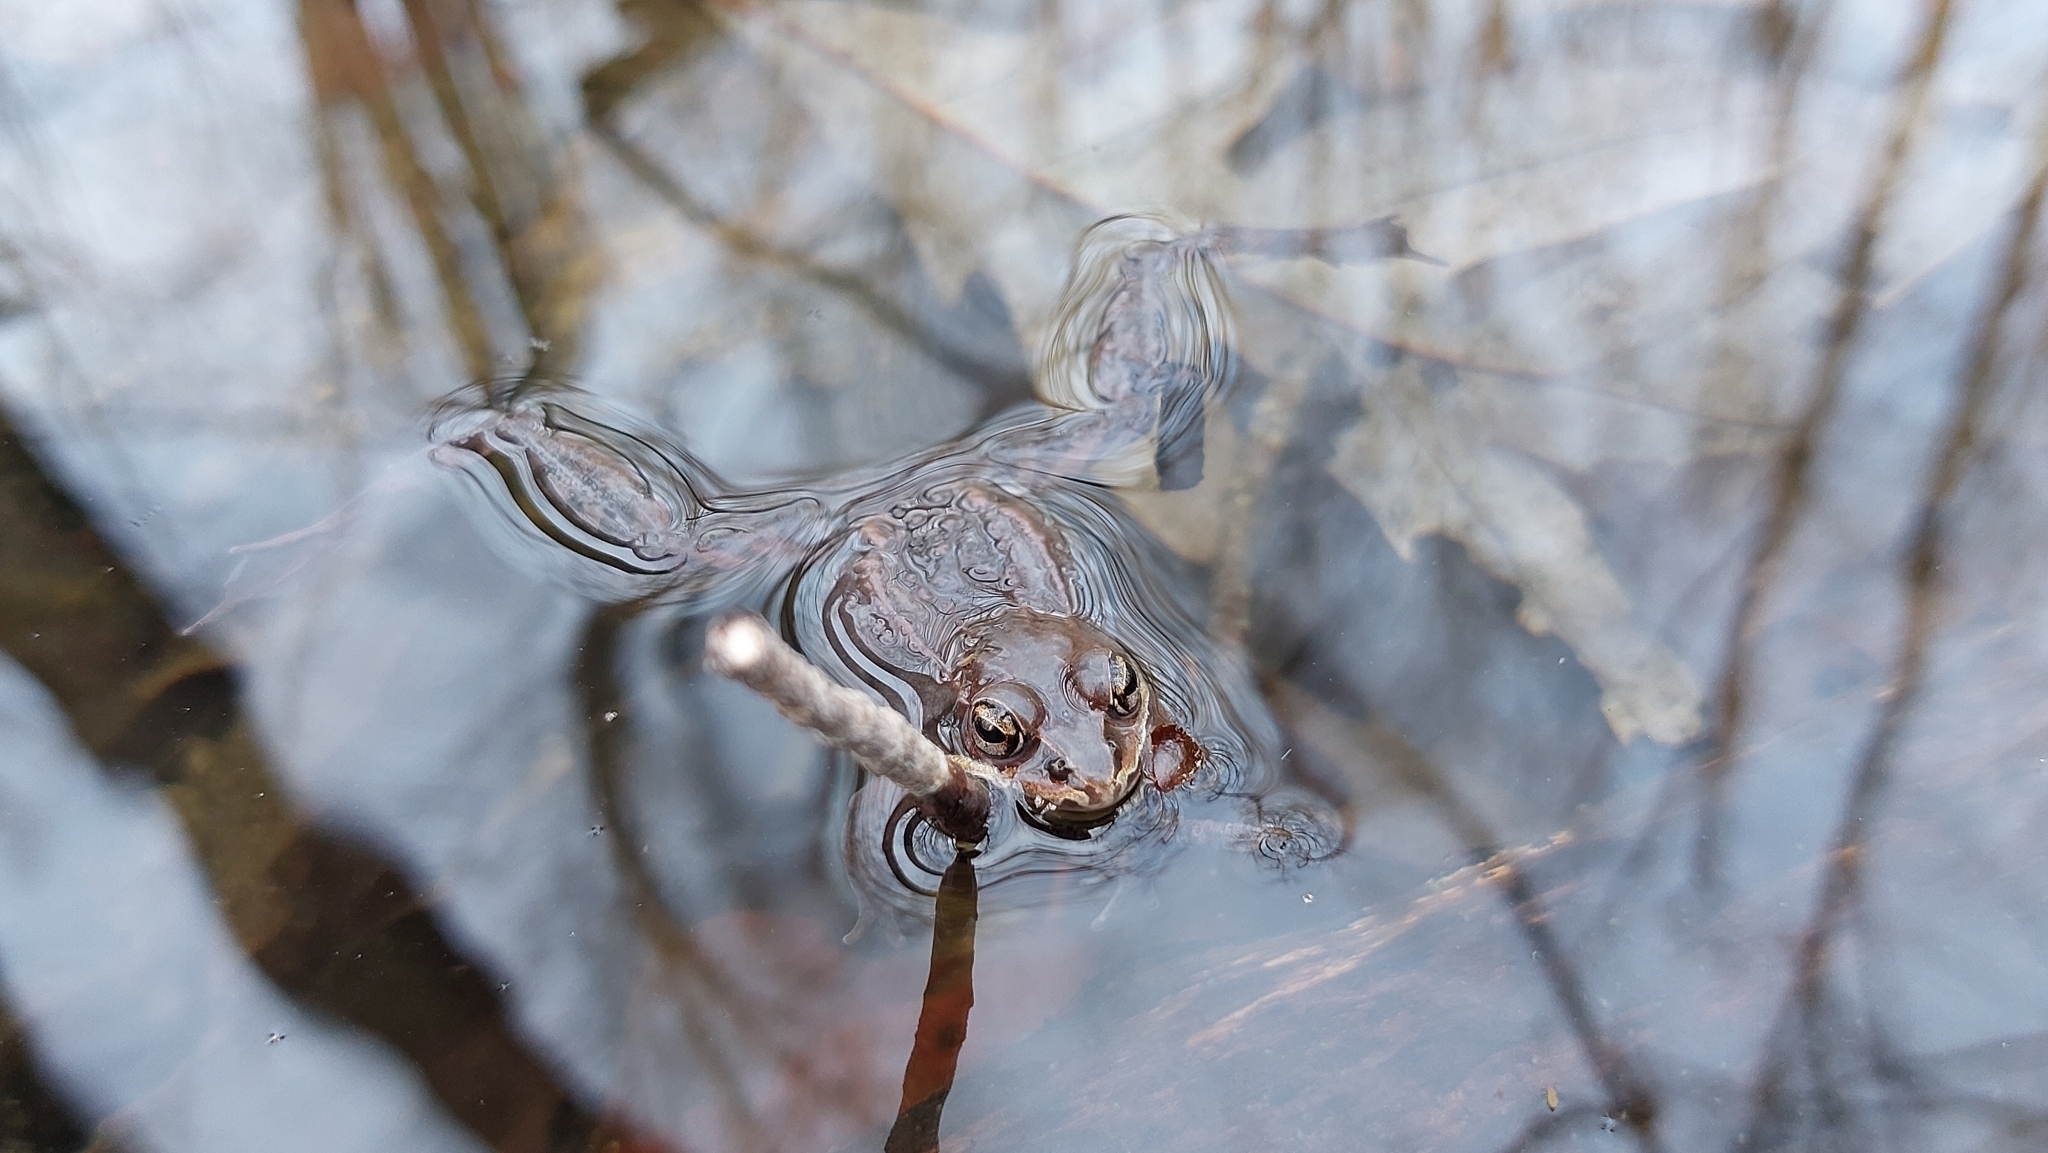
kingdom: Animalia
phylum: Chordata
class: Amphibia
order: Anura
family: Ranidae
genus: Lithobates
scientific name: Lithobates sylvaticus
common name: Wood frog
